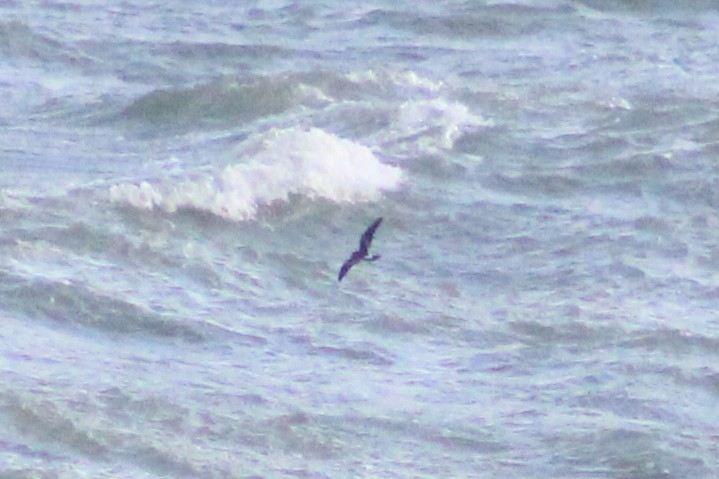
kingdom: Animalia
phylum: Chordata
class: Aves
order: Procellariiformes
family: Hydrobatidae
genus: Oceanodroma
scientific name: Oceanodroma leucorhoa
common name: Leach's storm-petrel
